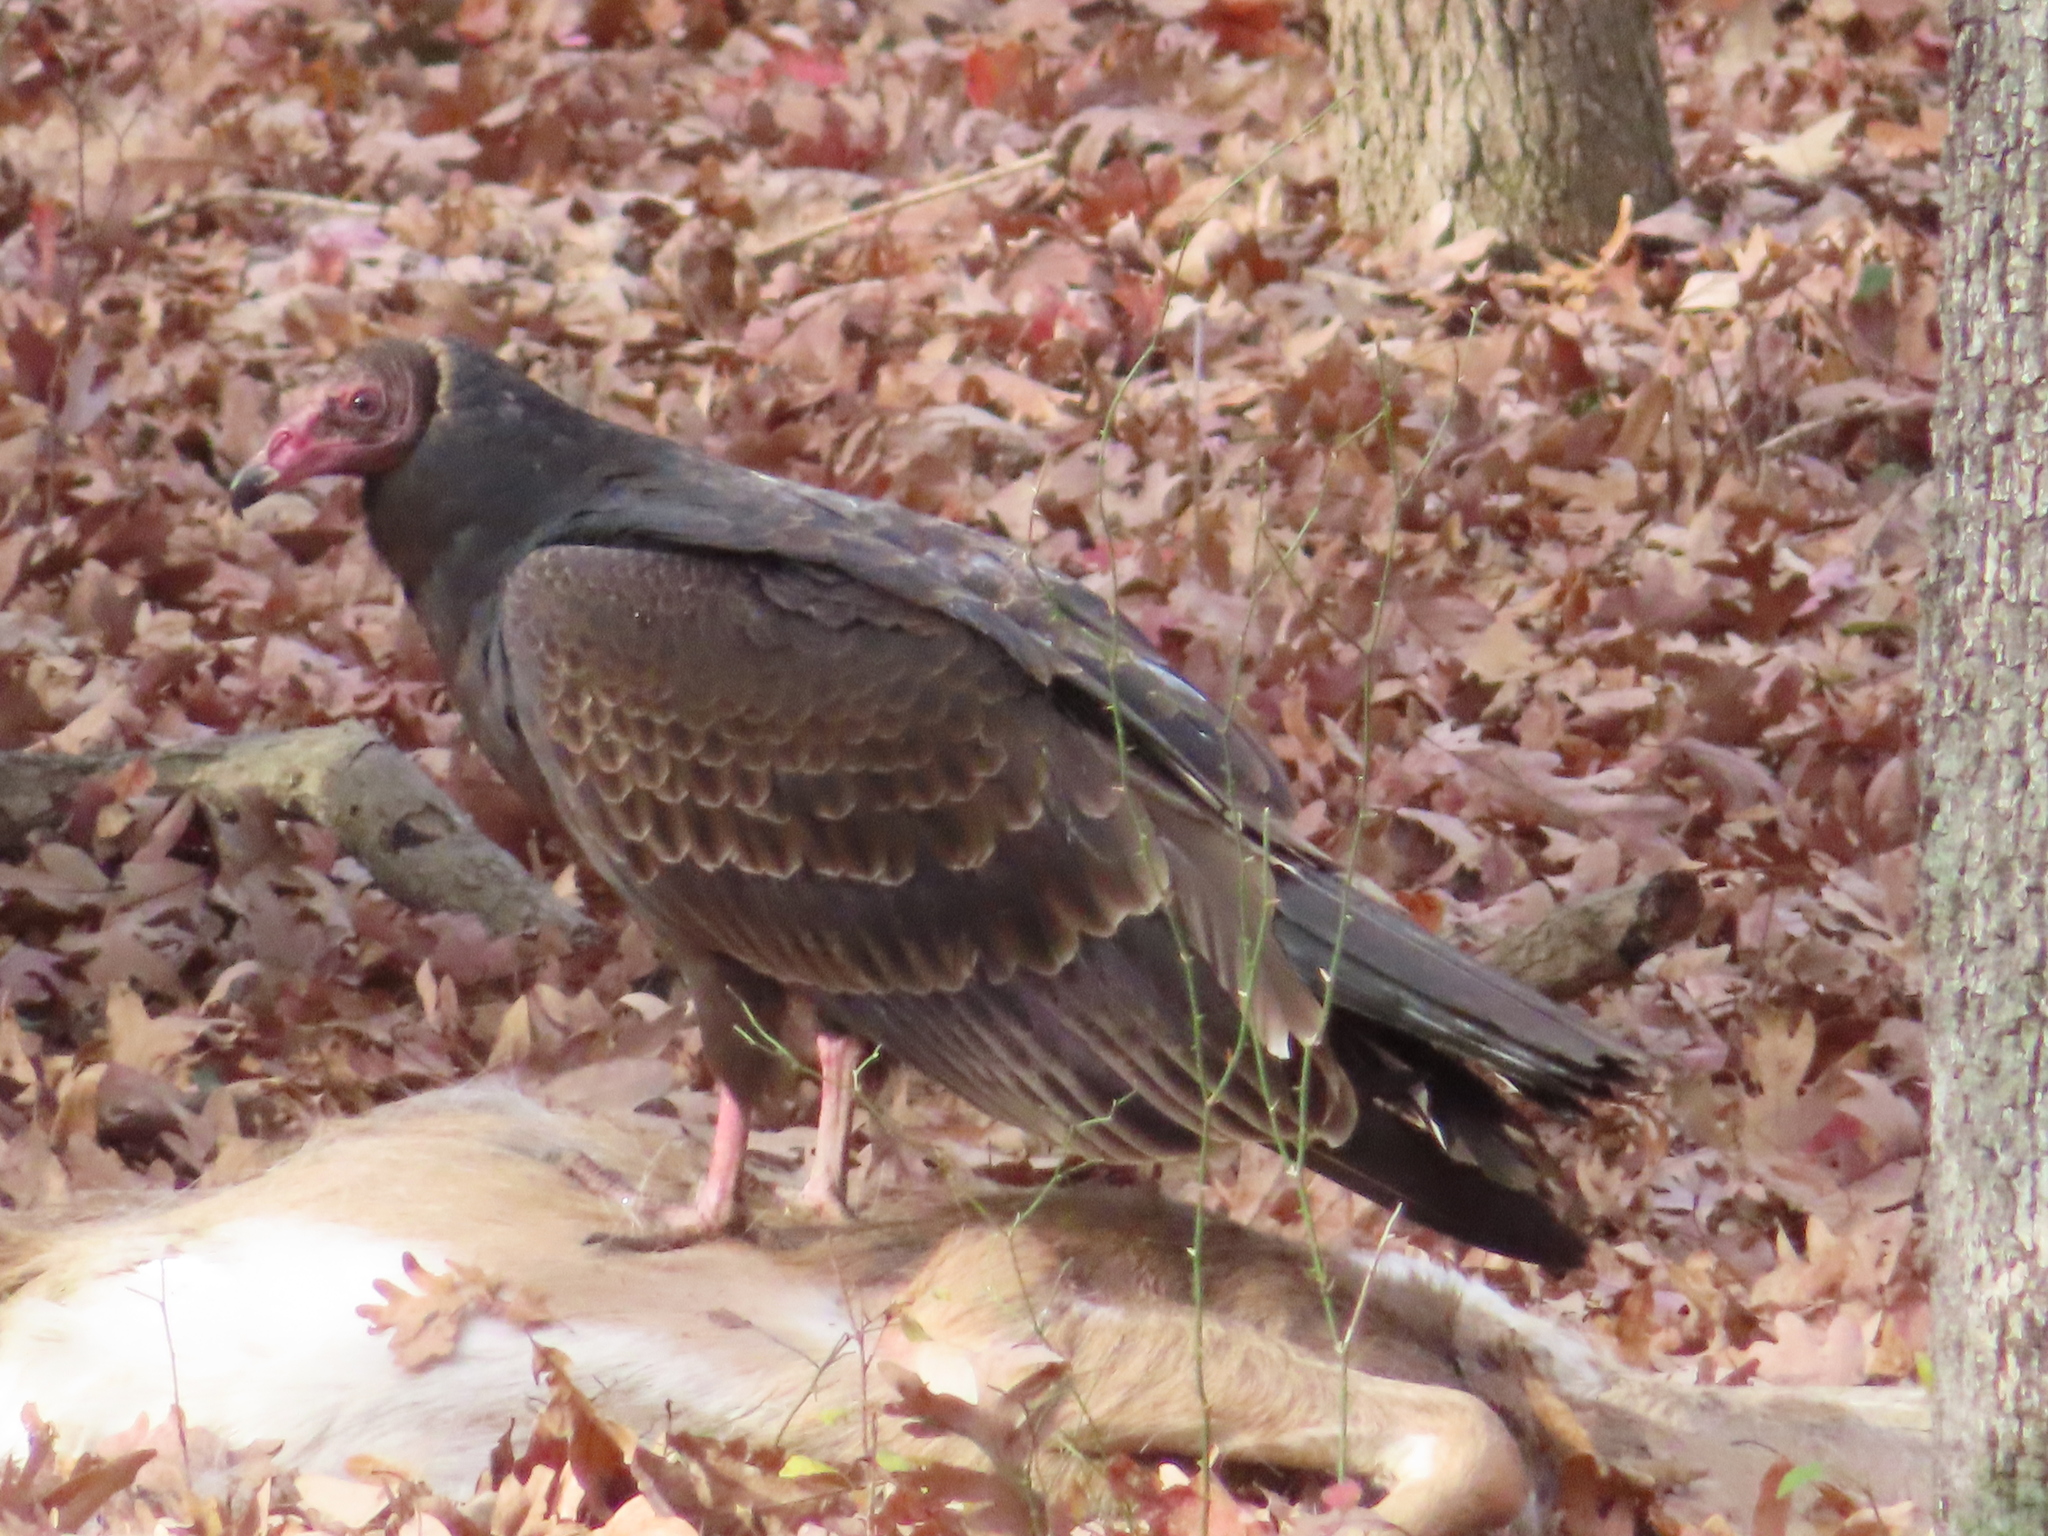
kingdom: Animalia
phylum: Chordata
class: Aves
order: Accipitriformes
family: Cathartidae
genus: Cathartes
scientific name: Cathartes aura
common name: Turkey vulture
